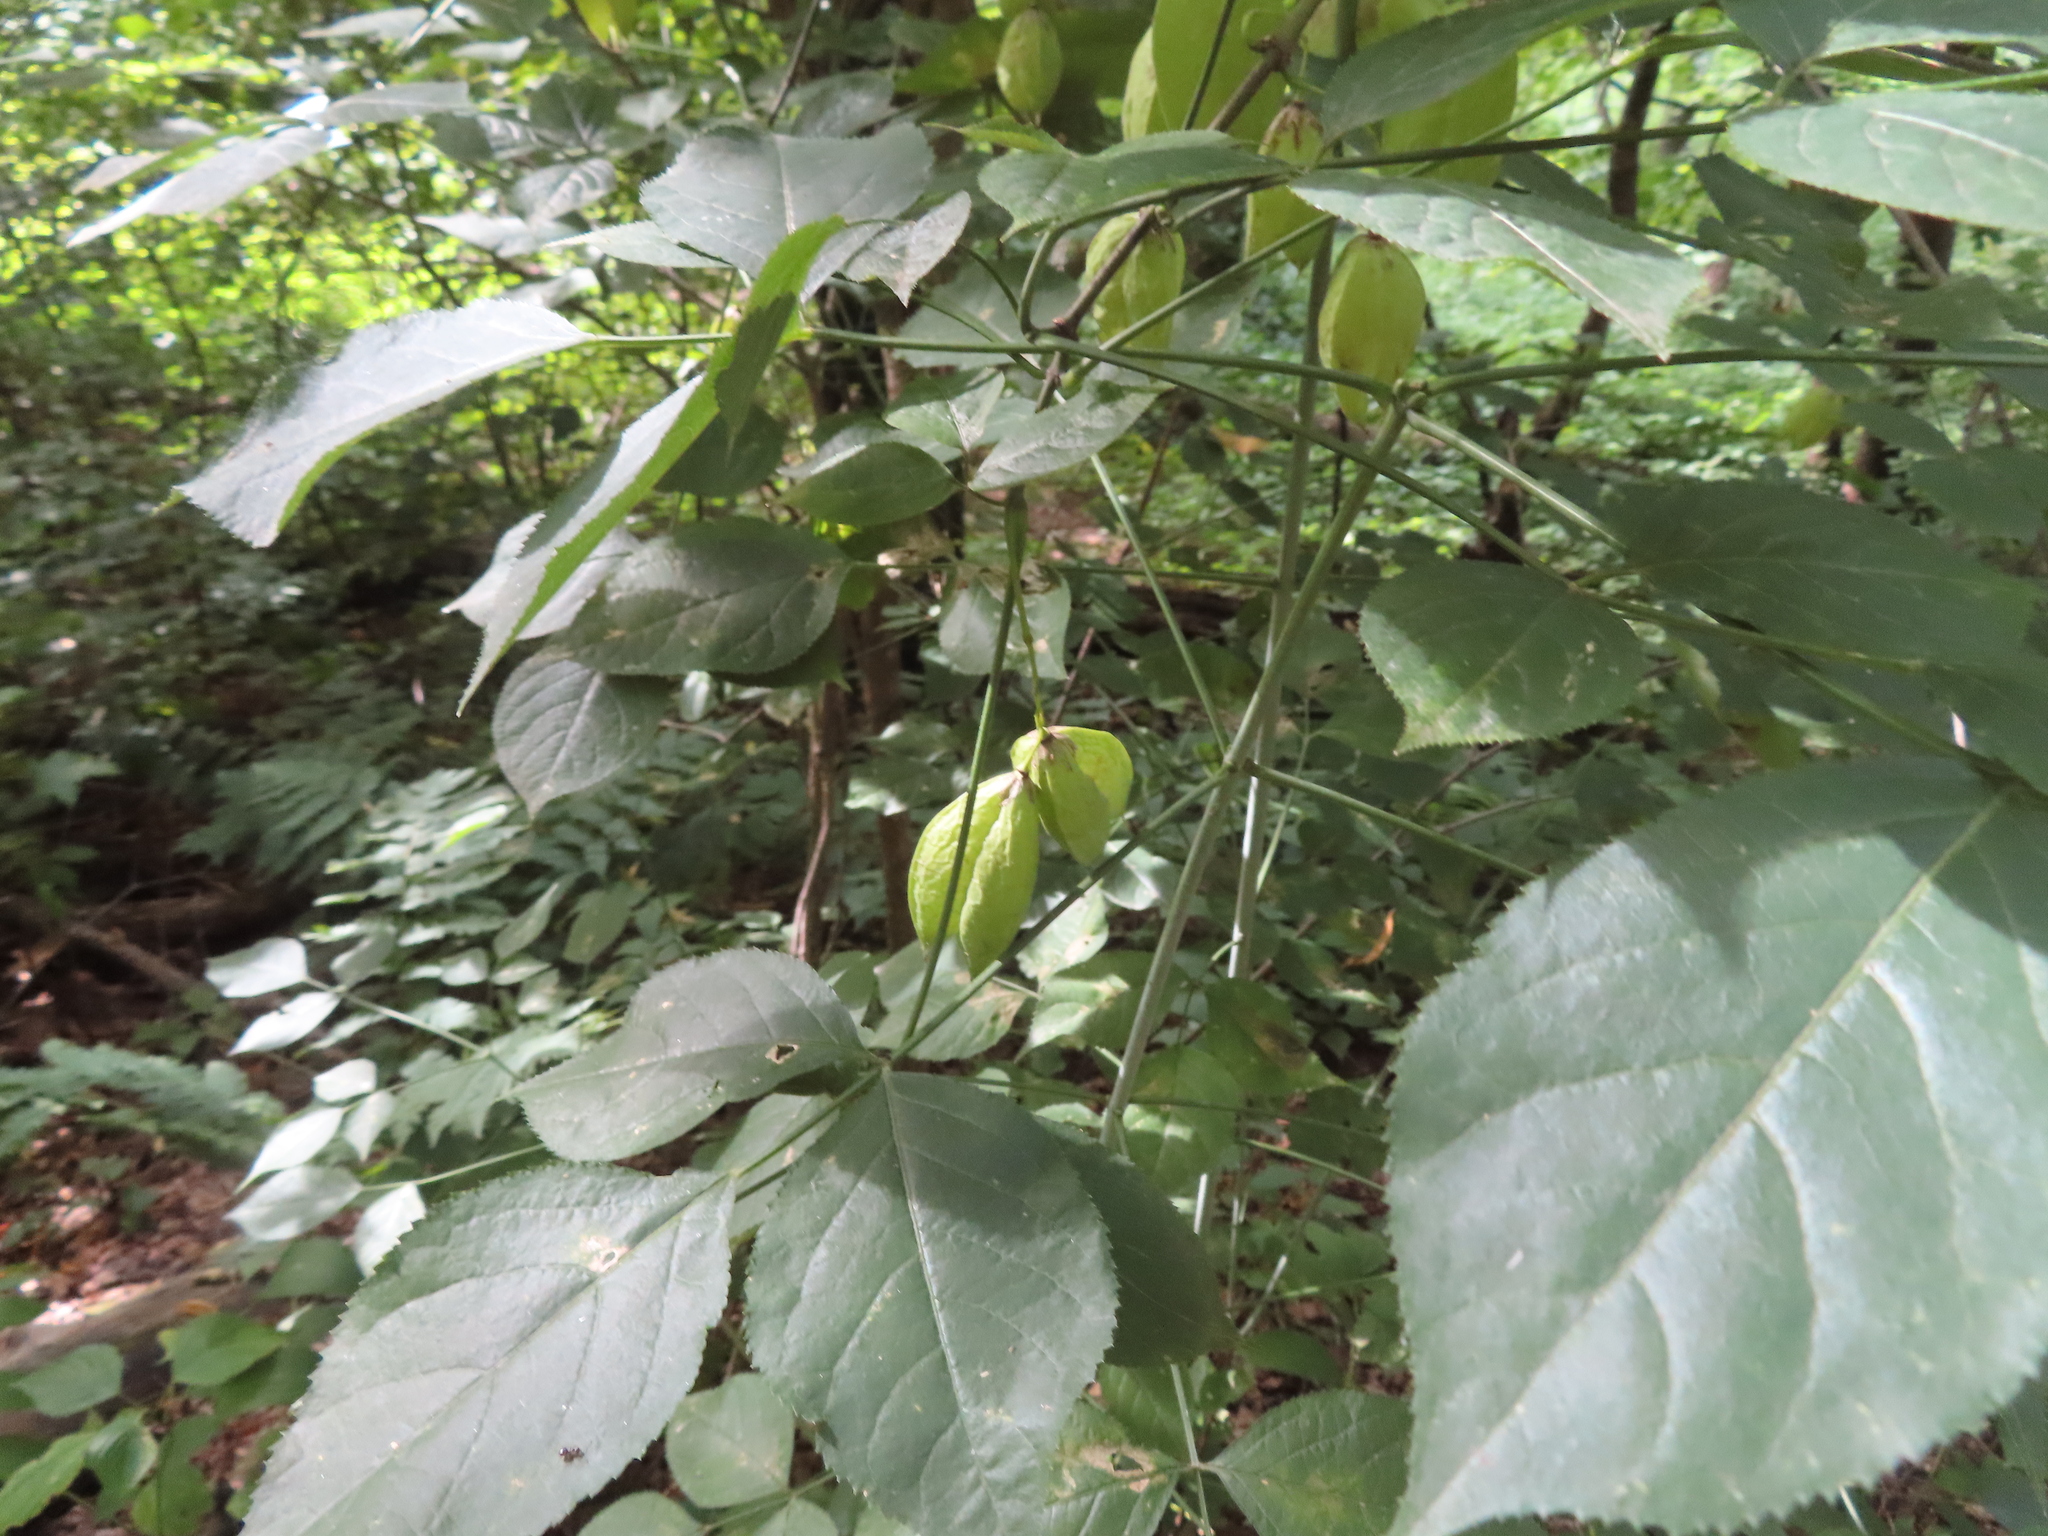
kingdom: Plantae
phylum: Tracheophyta
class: Magnoliopsida
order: Crossosomatales
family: Staphyleaceae
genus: Staphylea
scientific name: Staphylea trifolia
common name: American bladdernut
